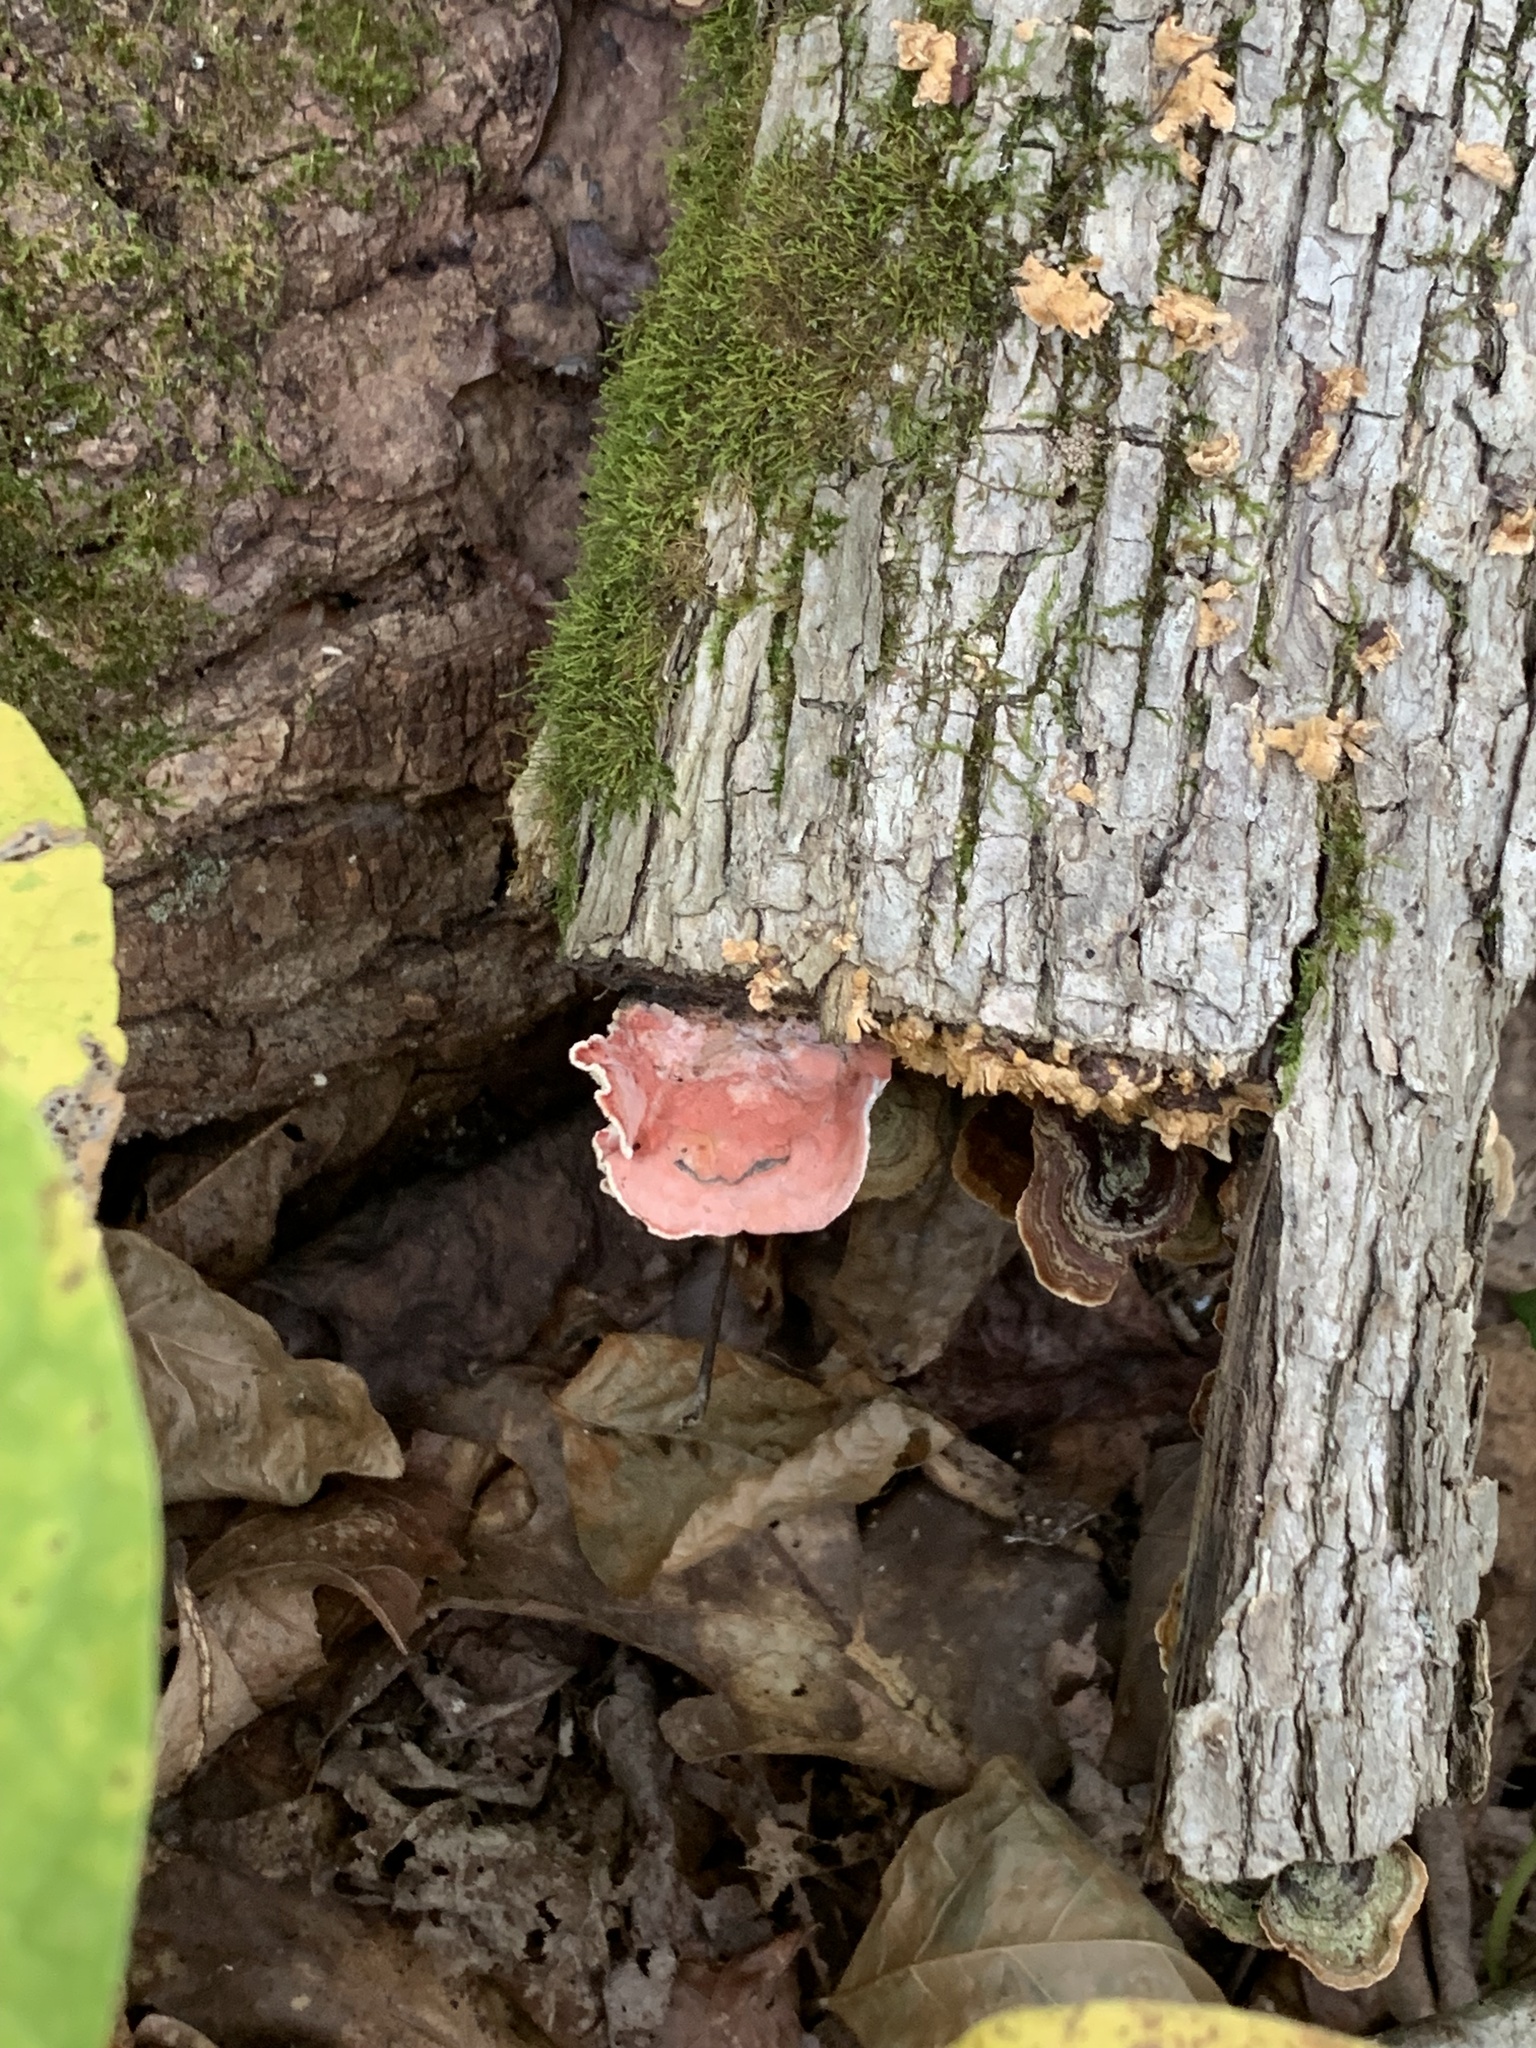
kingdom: Fungi
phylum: Basidiomycota
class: Agaricomycetes
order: Polyporales
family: Irpicaceae
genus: Byssomerulius
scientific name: Byssomerulius incarnatus
